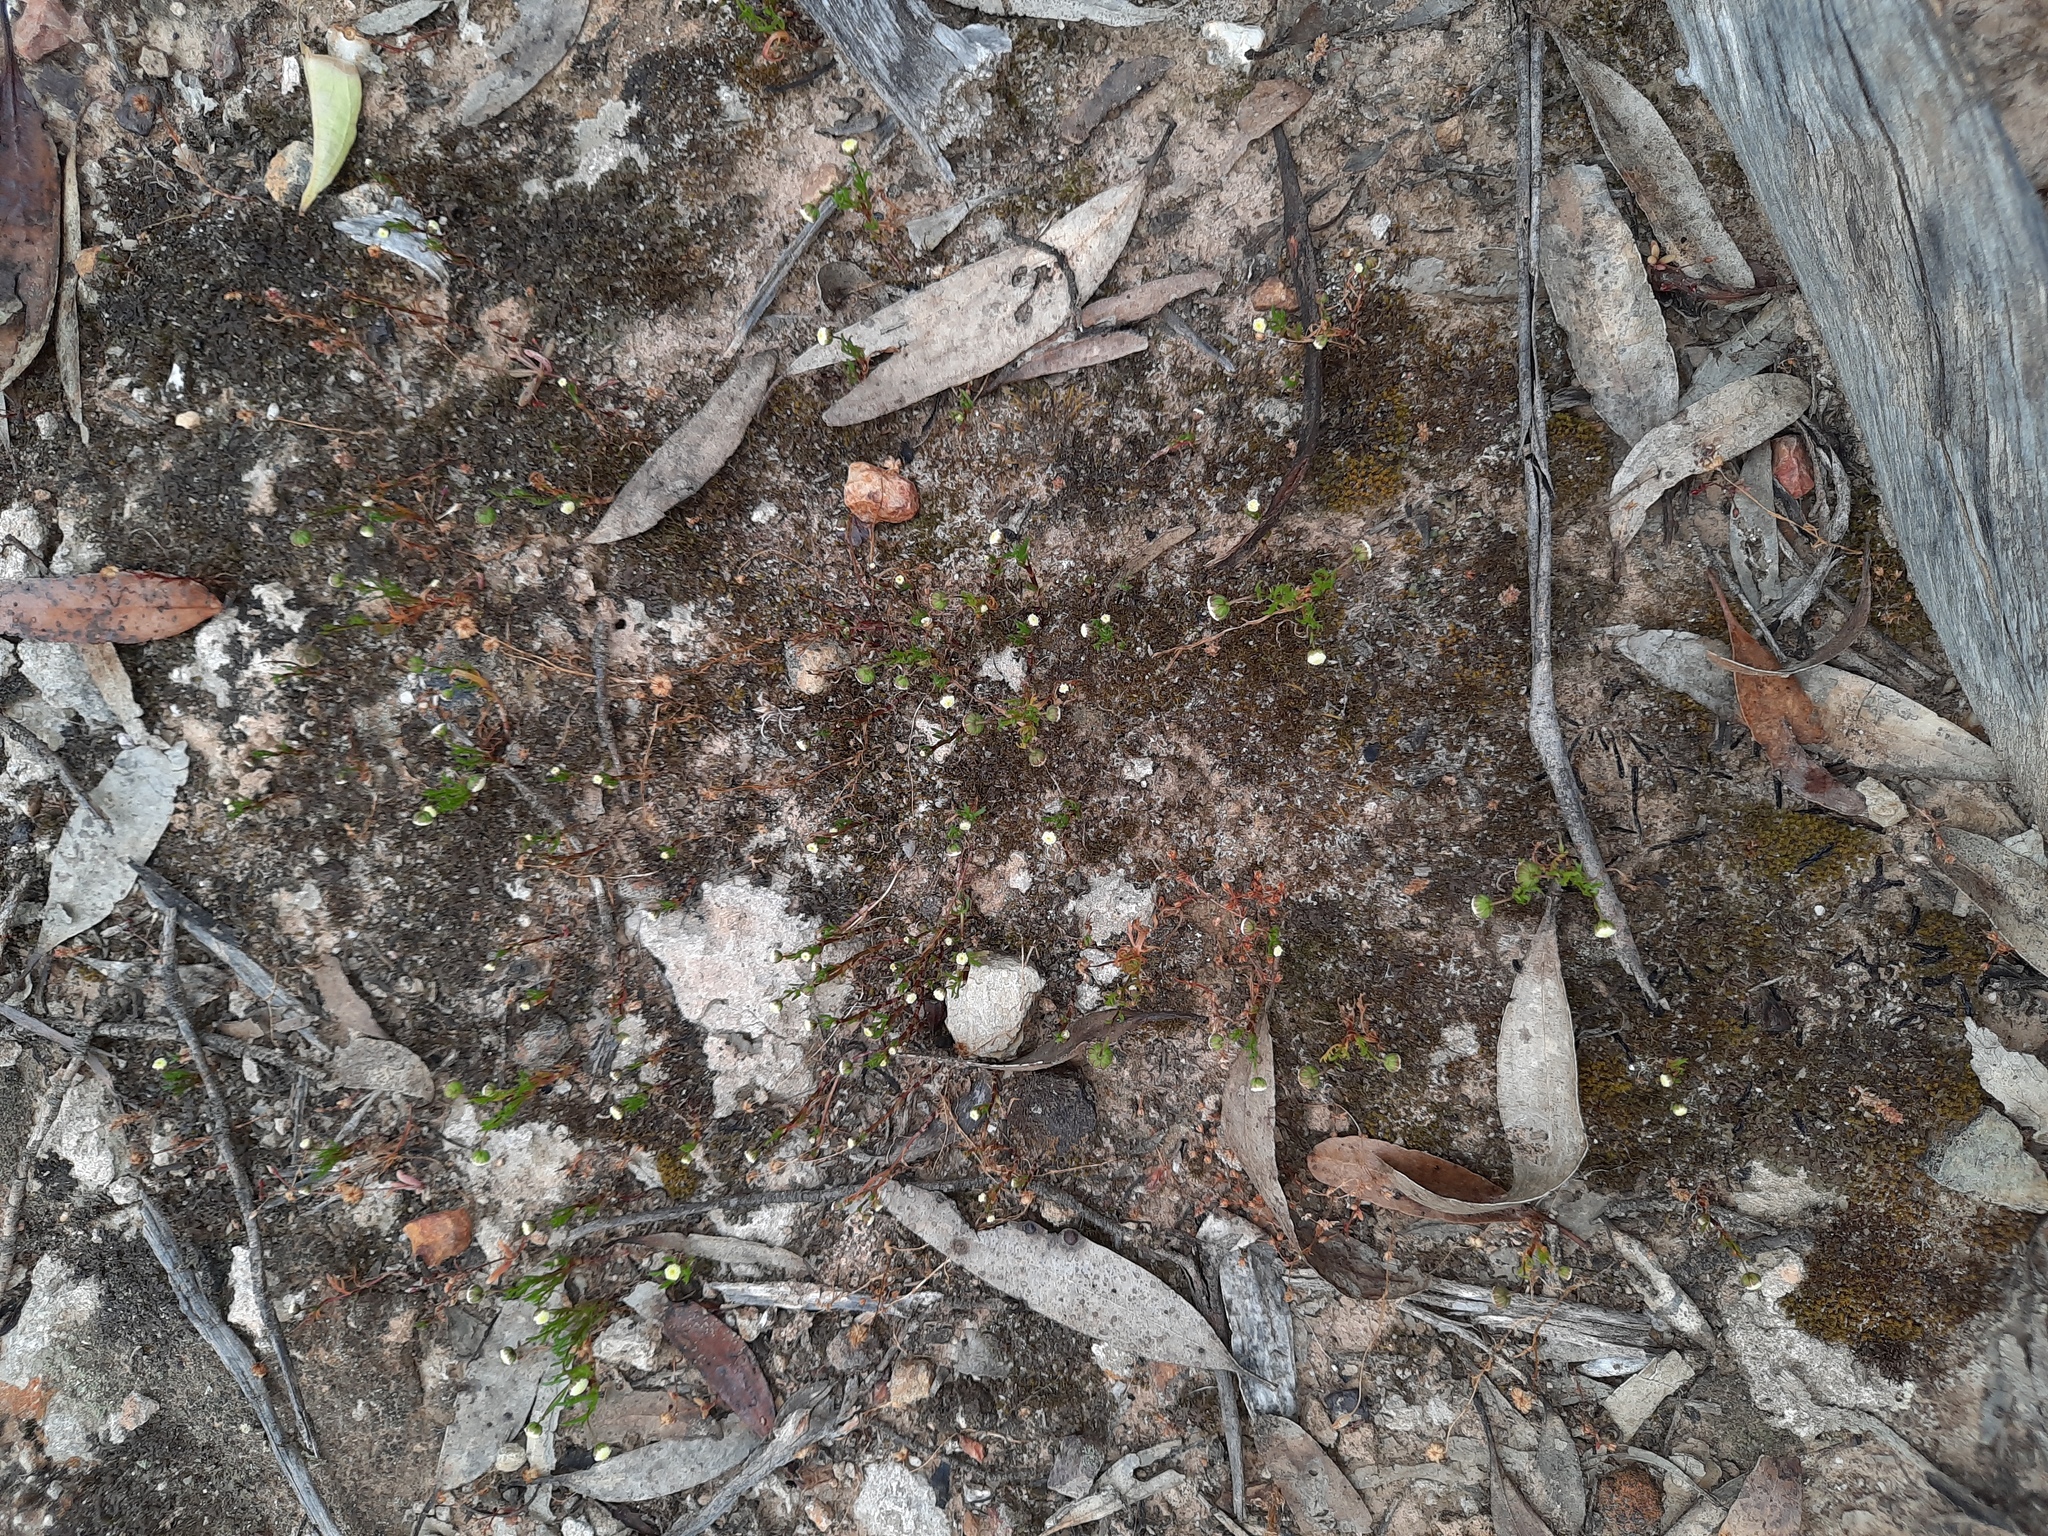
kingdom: Plantae
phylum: Tracheophyta
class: Magnoliopsida
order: Asterales
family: Asteraceae
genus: Cotula
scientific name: Cotula bipinnata
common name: Ferny buttonweed
